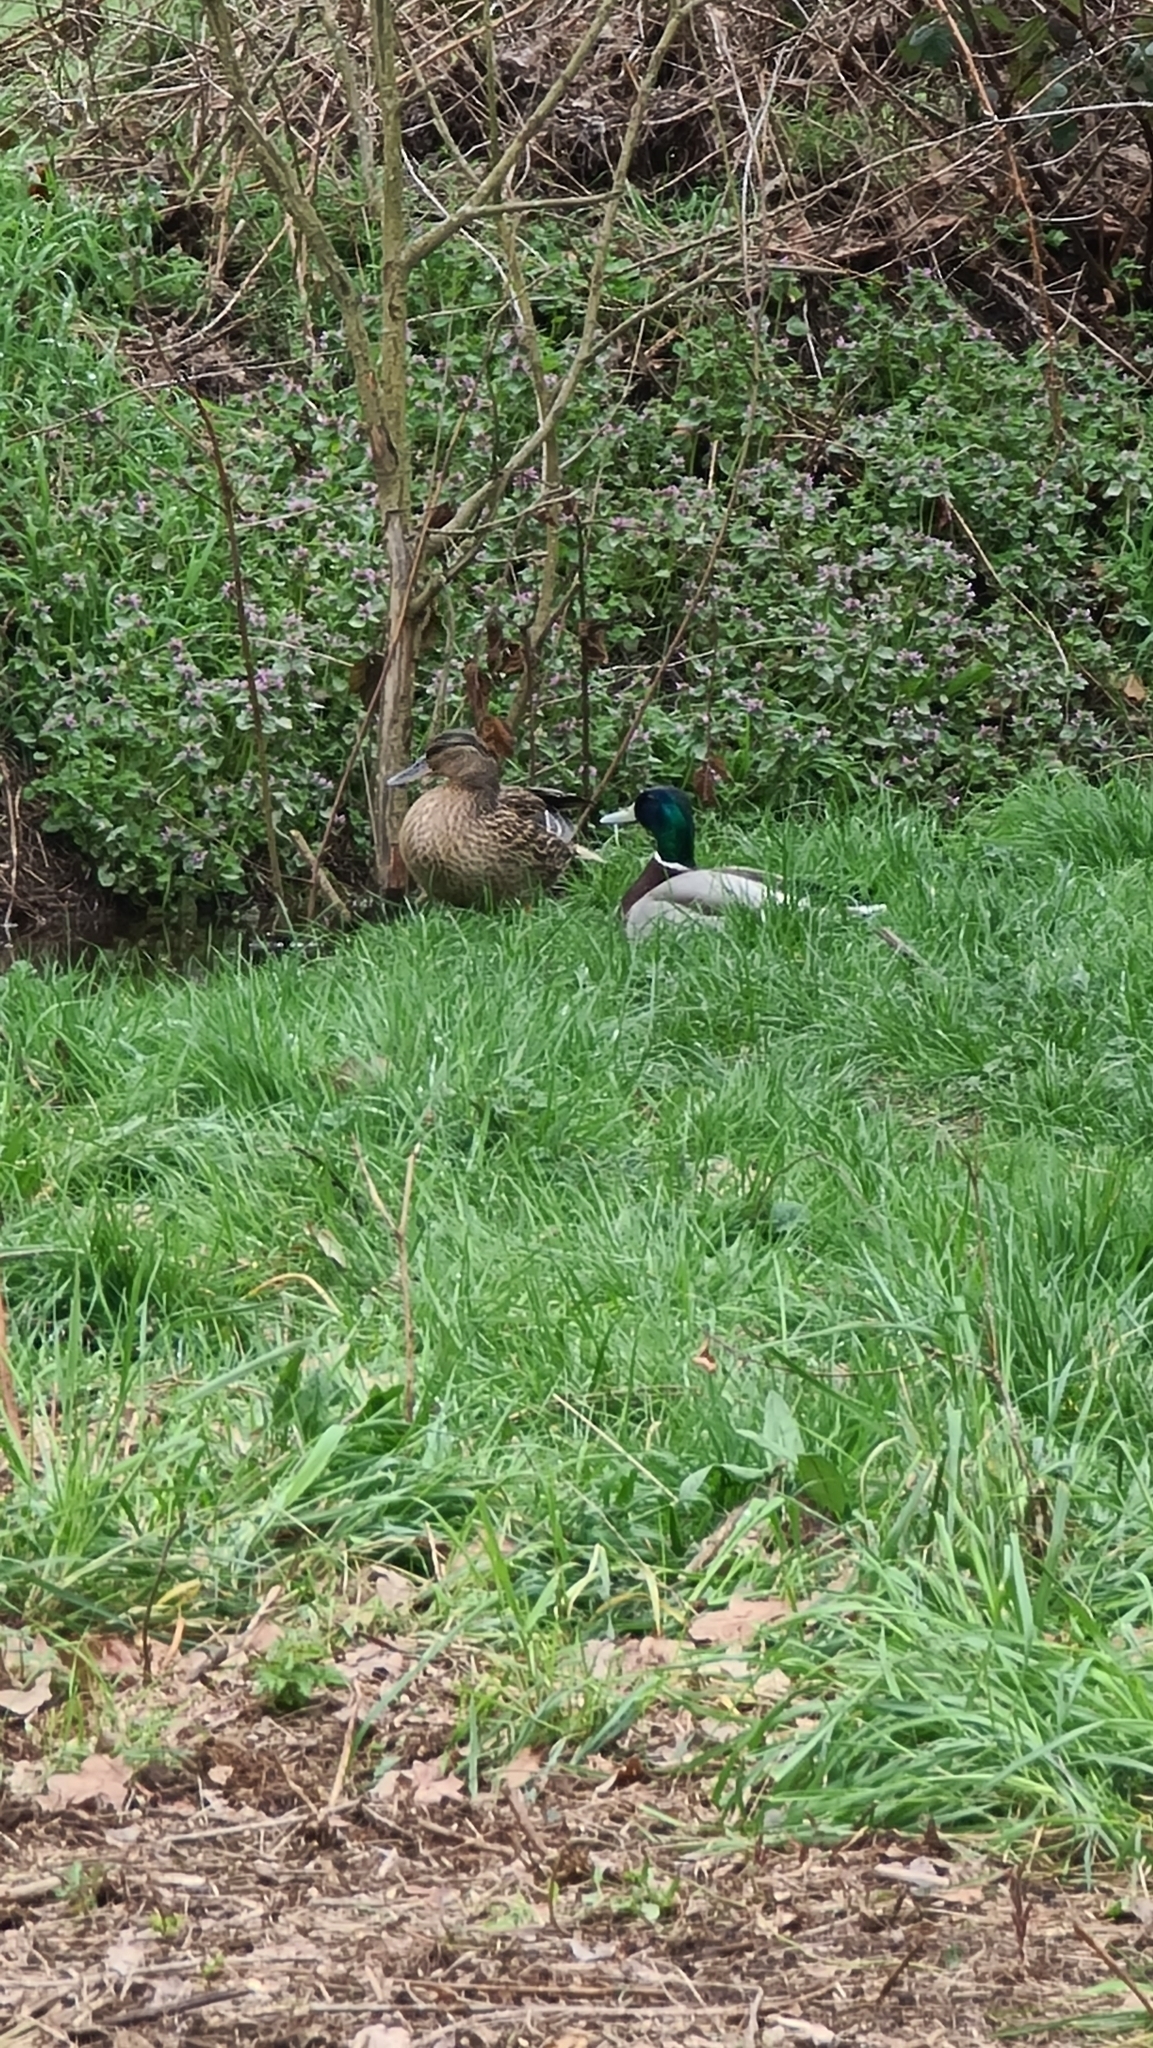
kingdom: Animalia
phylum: Chordata
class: Aves
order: Anseriformes
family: Anatidae
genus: Anas
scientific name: Anas platyrhynchos
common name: Mallard
